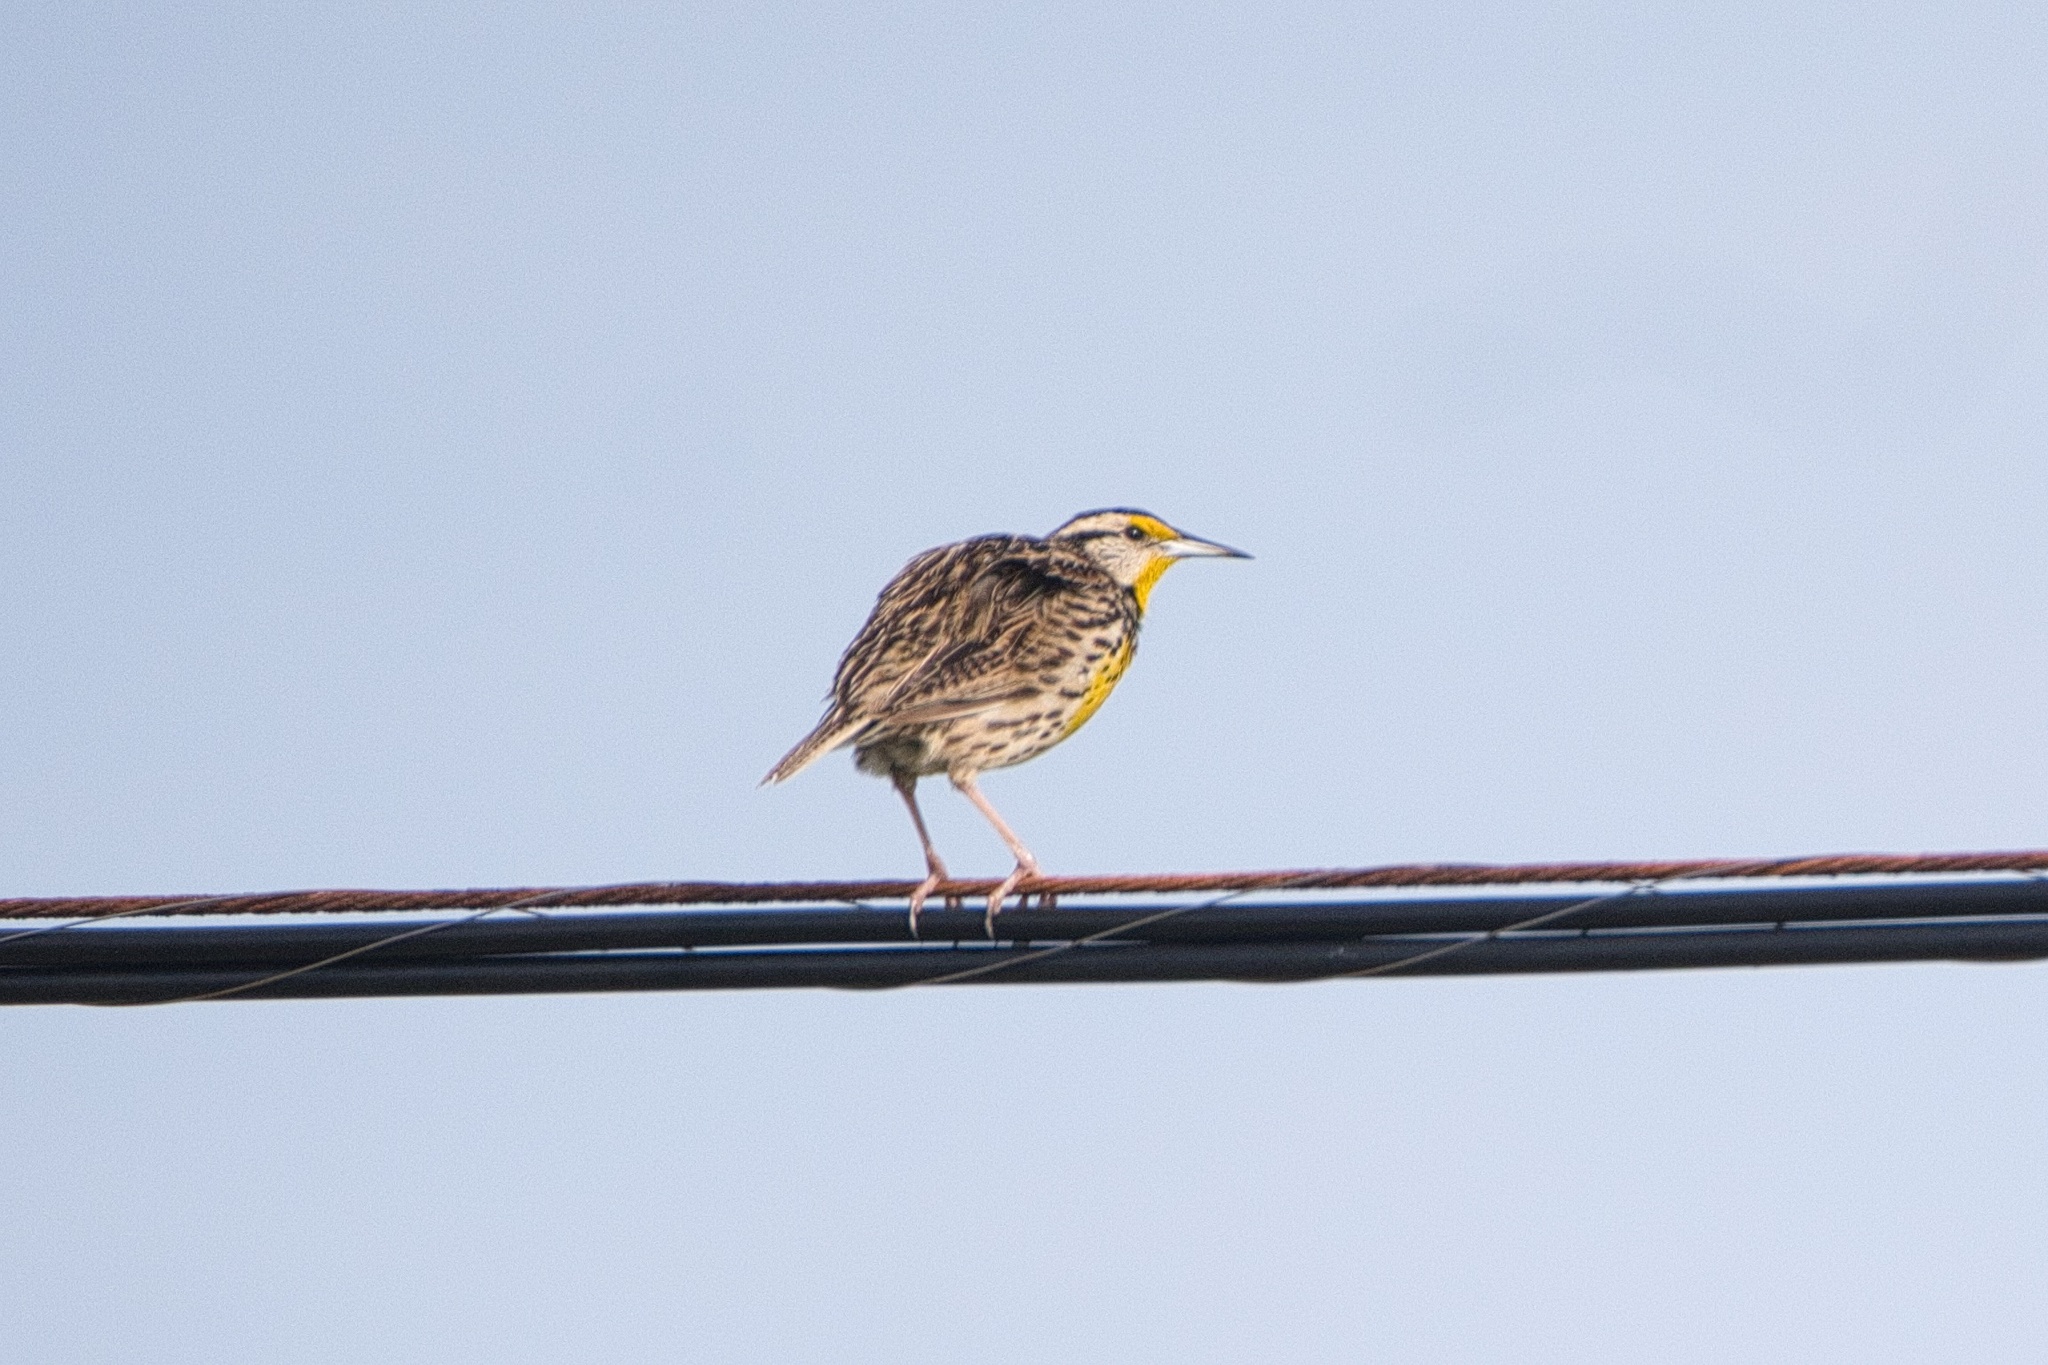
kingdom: Animalia
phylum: Chordata
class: Aves
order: Passeriformes
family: Icteridae
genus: Sturnella
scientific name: Sturnella magna
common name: Eastern meadowlark
